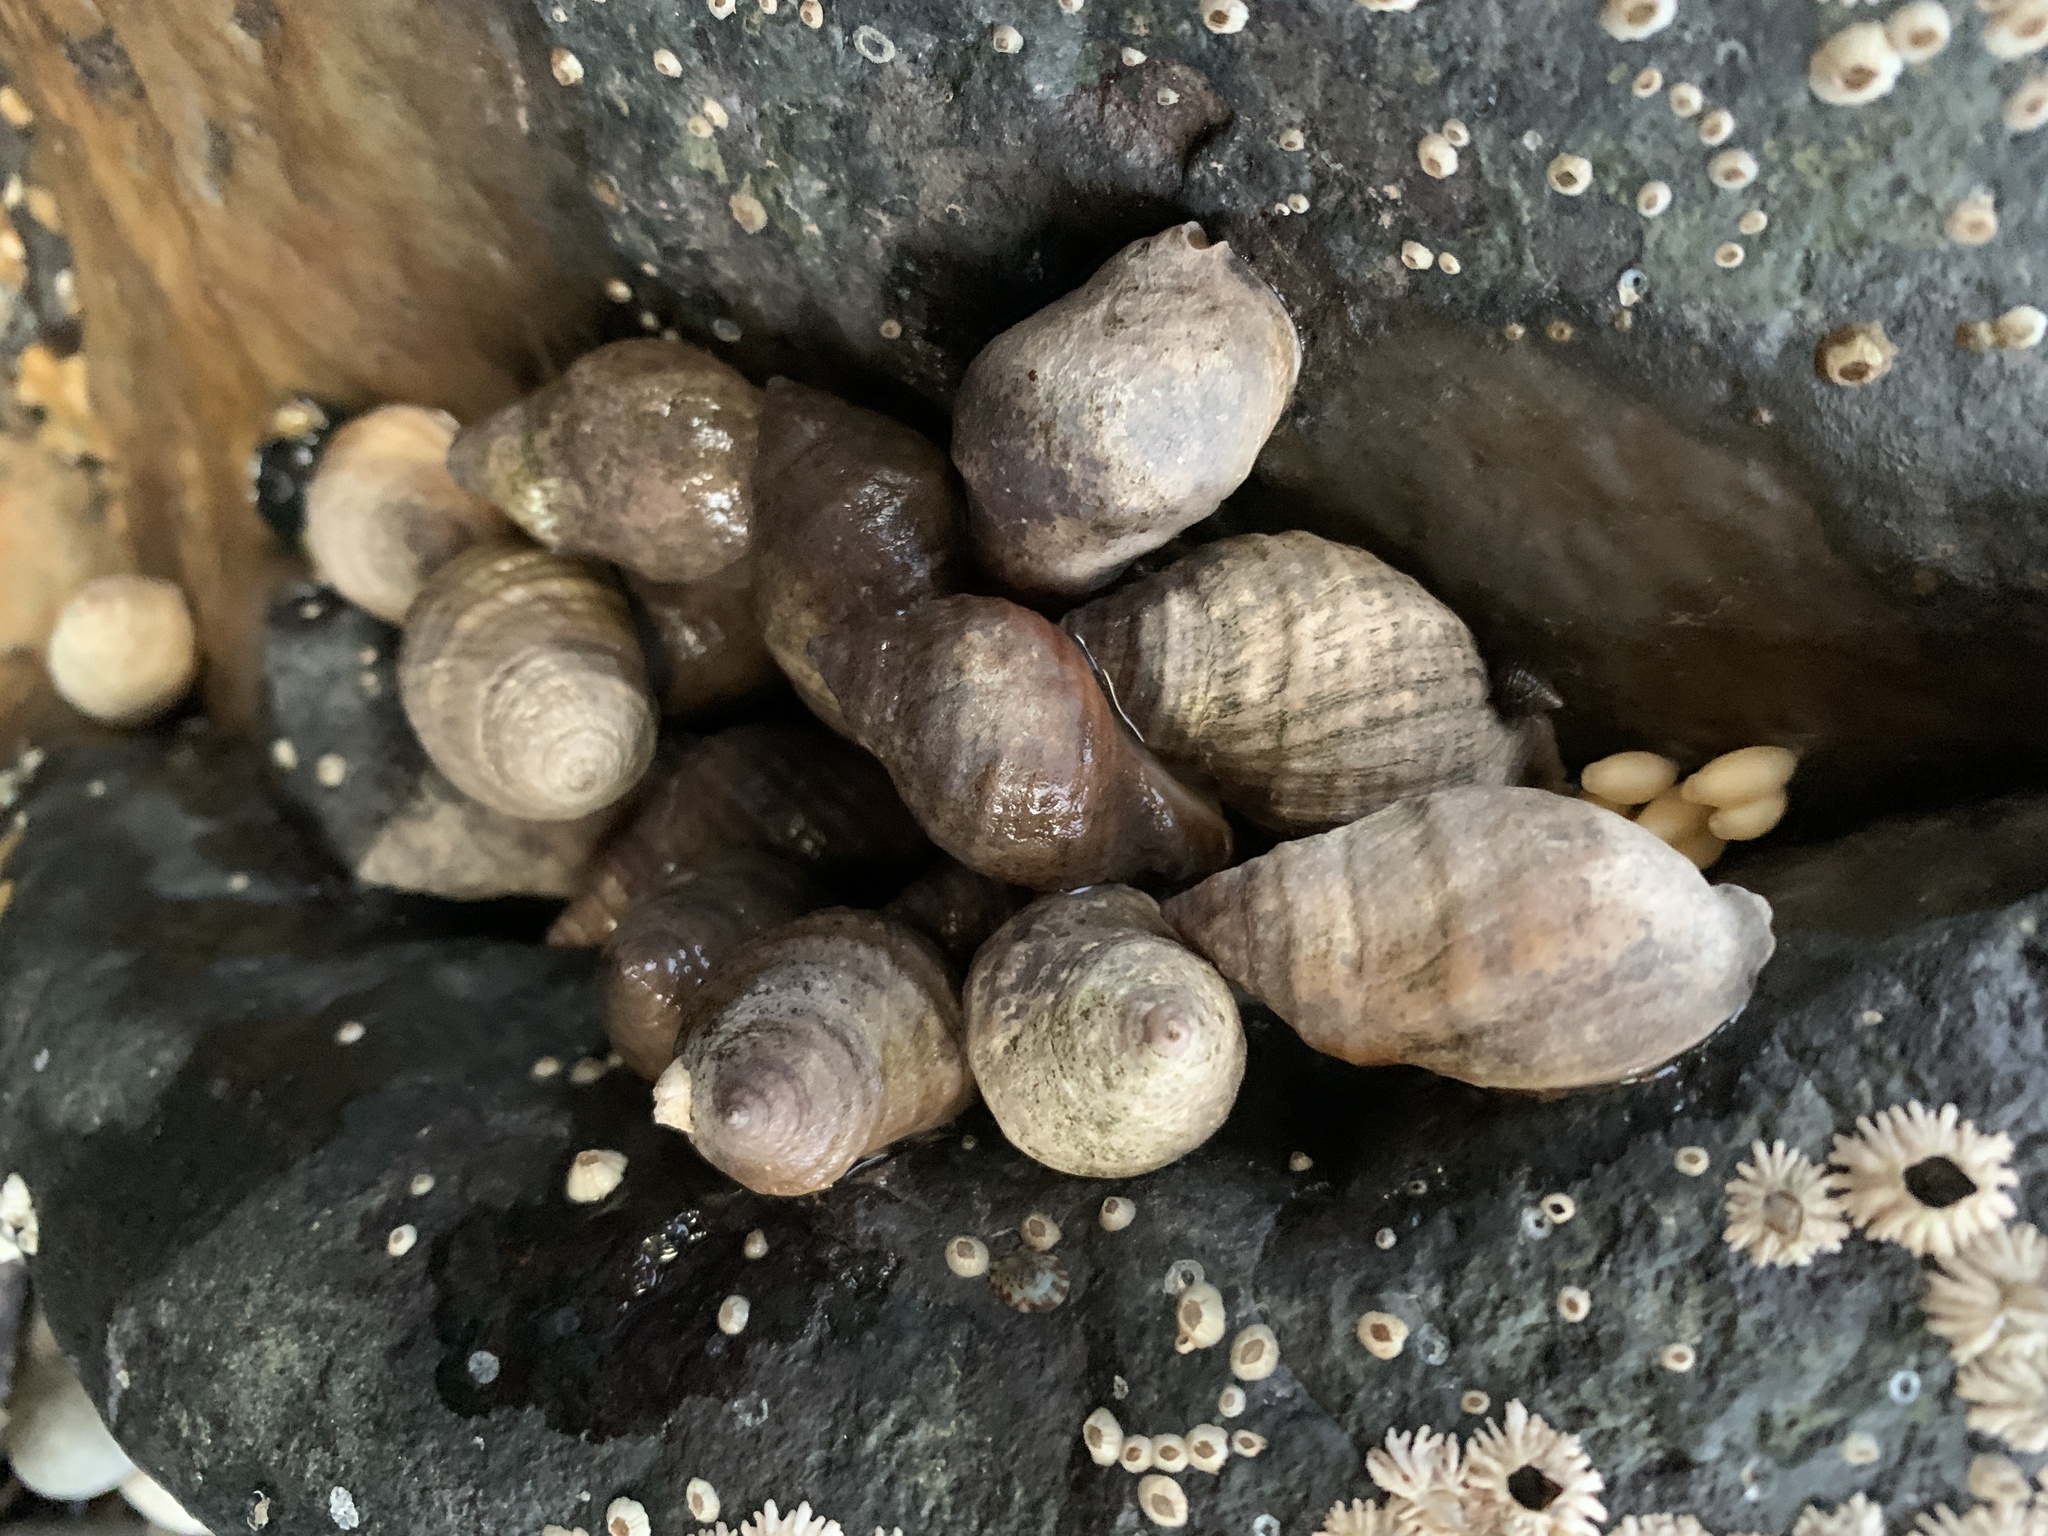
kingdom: Animalia
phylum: Mollusca
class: Gastropoda
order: Neogastropoda
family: Muricidae
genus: Nucella
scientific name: Nucella lapillus
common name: Dog whelk
